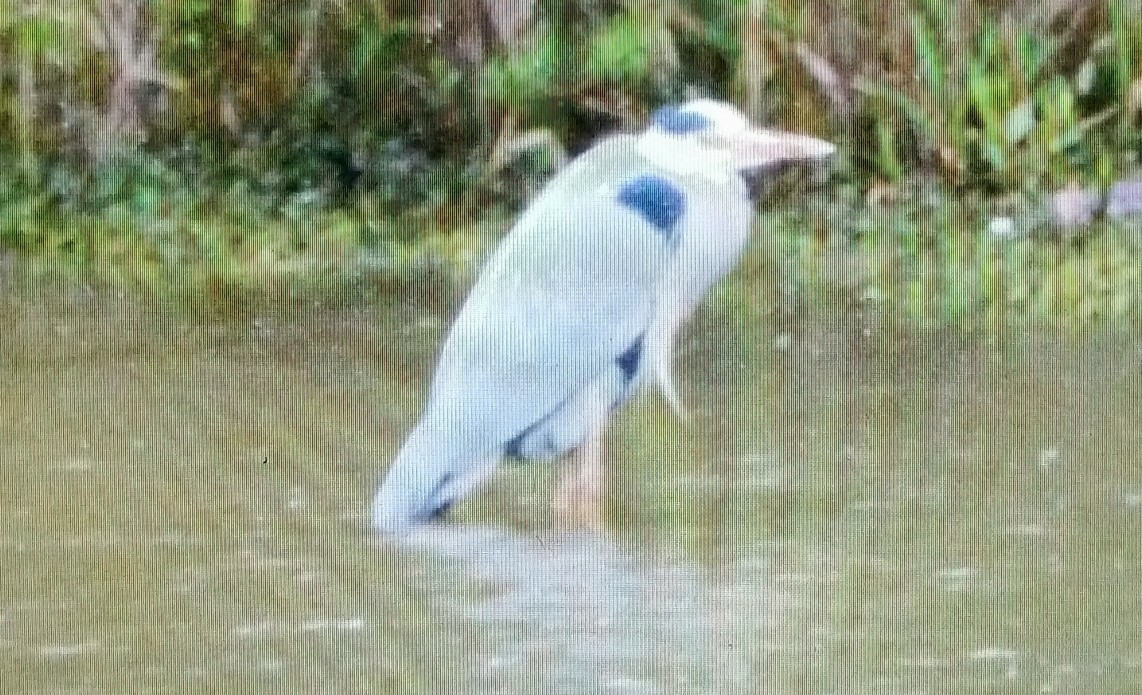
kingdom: Animalia
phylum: Chordata
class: Aves
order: Pelecaniformes
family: Ardeidae
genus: Ardea
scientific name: Ardea cinerea
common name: Grey heron
